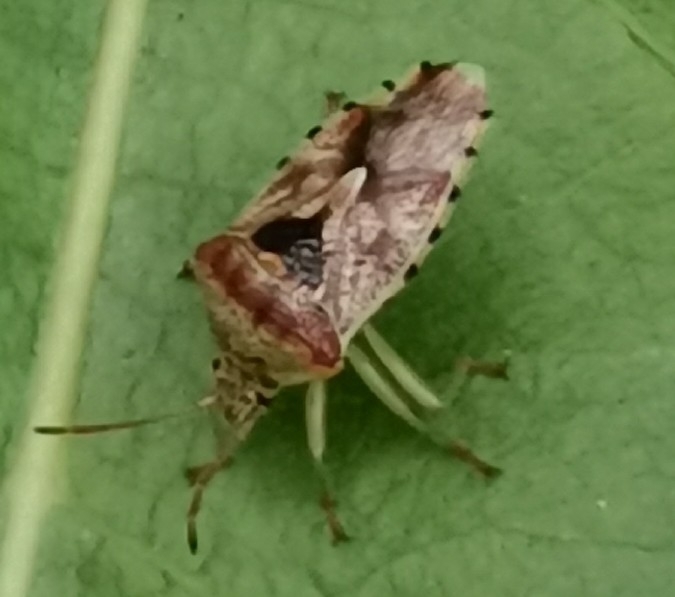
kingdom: Animalia
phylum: Arthropoda
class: Insecta
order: Hemiptera
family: Acanthosomatidae
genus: Elasmucha
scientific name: Elasmucha grisea
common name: Parent bug
